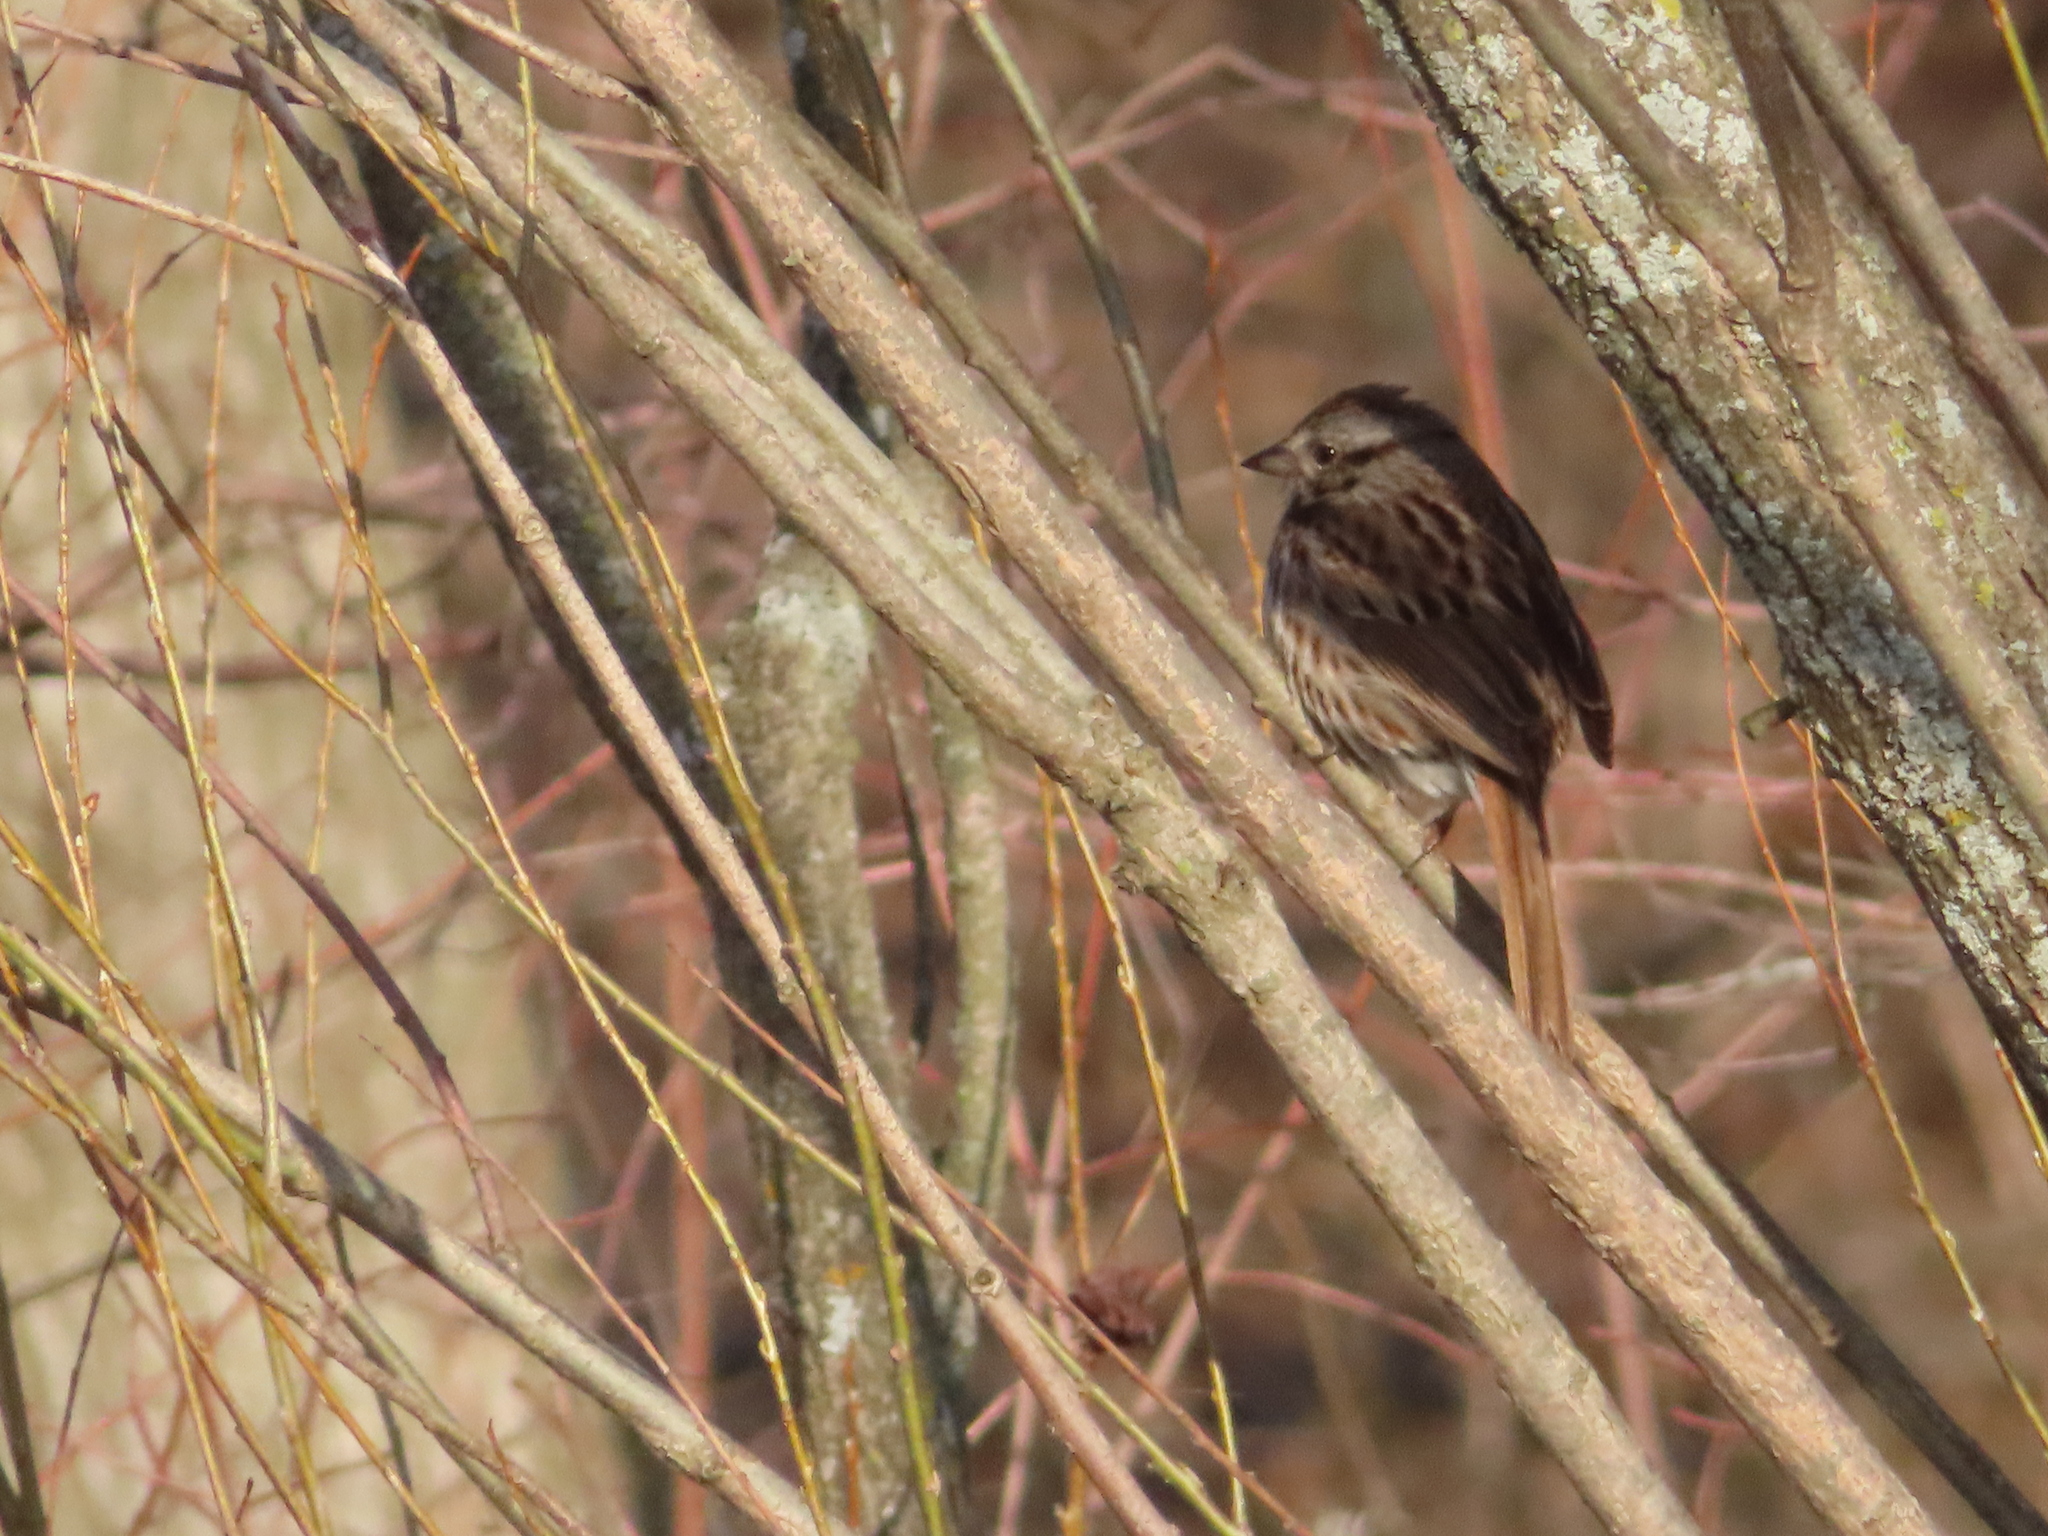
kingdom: Animalia
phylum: Chordata
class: Aves
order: Passeriformes
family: Passerellidae
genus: Melospiza
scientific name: Melospiza melodia
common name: Song sparrow
